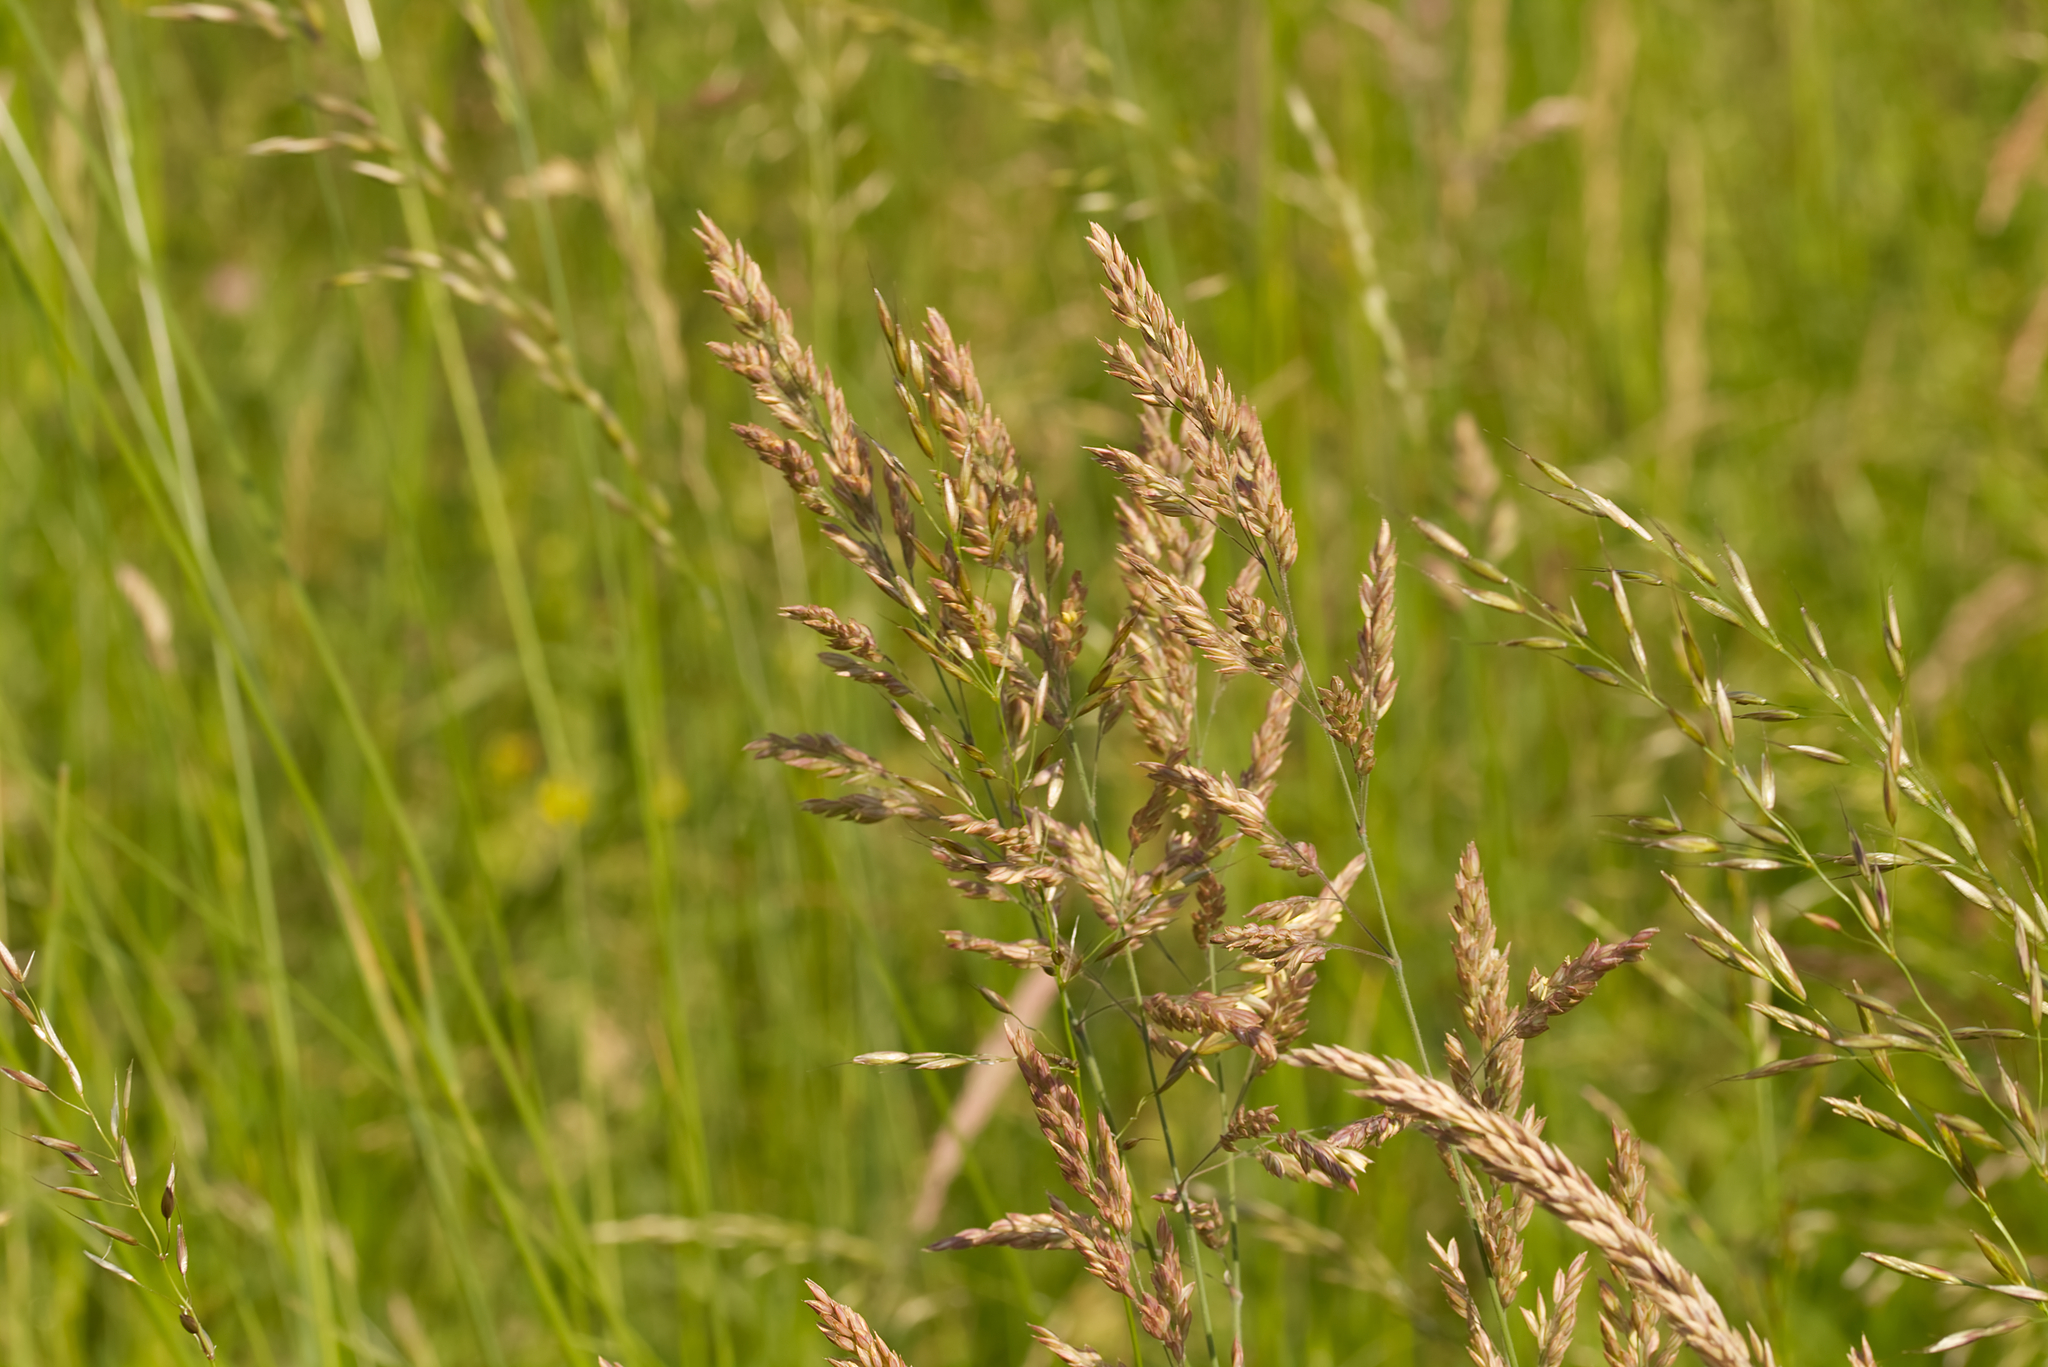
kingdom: Plantae
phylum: Tracheophyta
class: Liliopsida
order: Poales
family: Poaceae
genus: Holcus
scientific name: Holcus lanatus
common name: Yorkshire-fog
